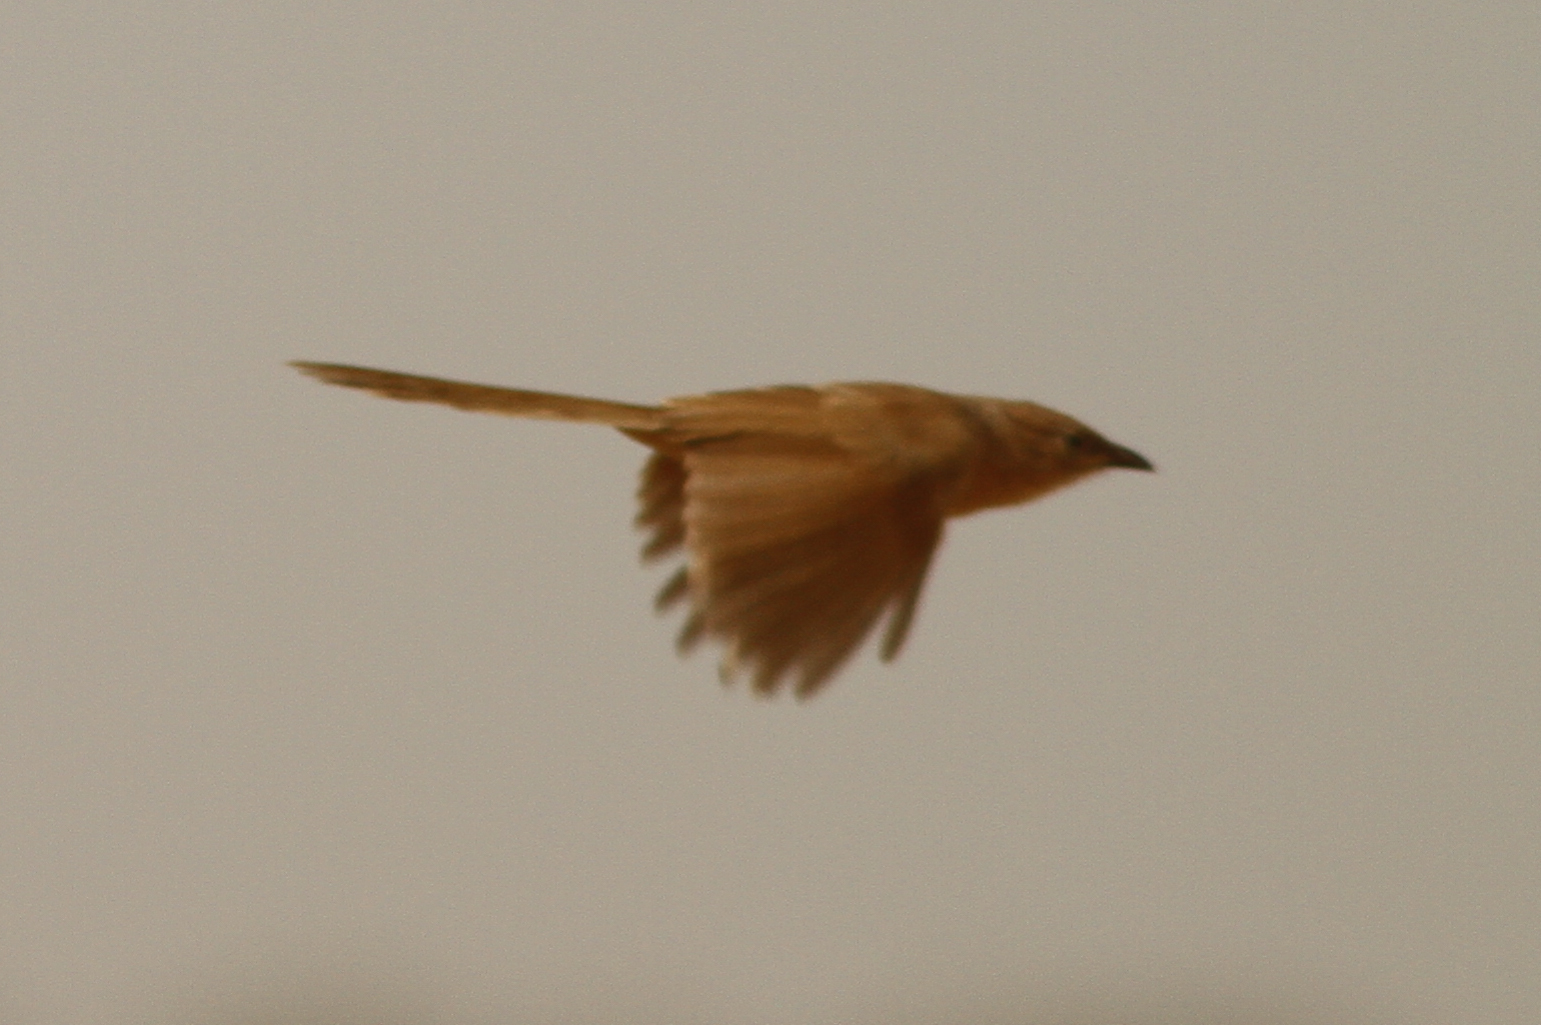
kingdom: Animalia
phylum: Chordata
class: Aves
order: Passeriformes
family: Leiothrichidae
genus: Turdoides
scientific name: Turdoides fulva
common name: Fulvous babbler
